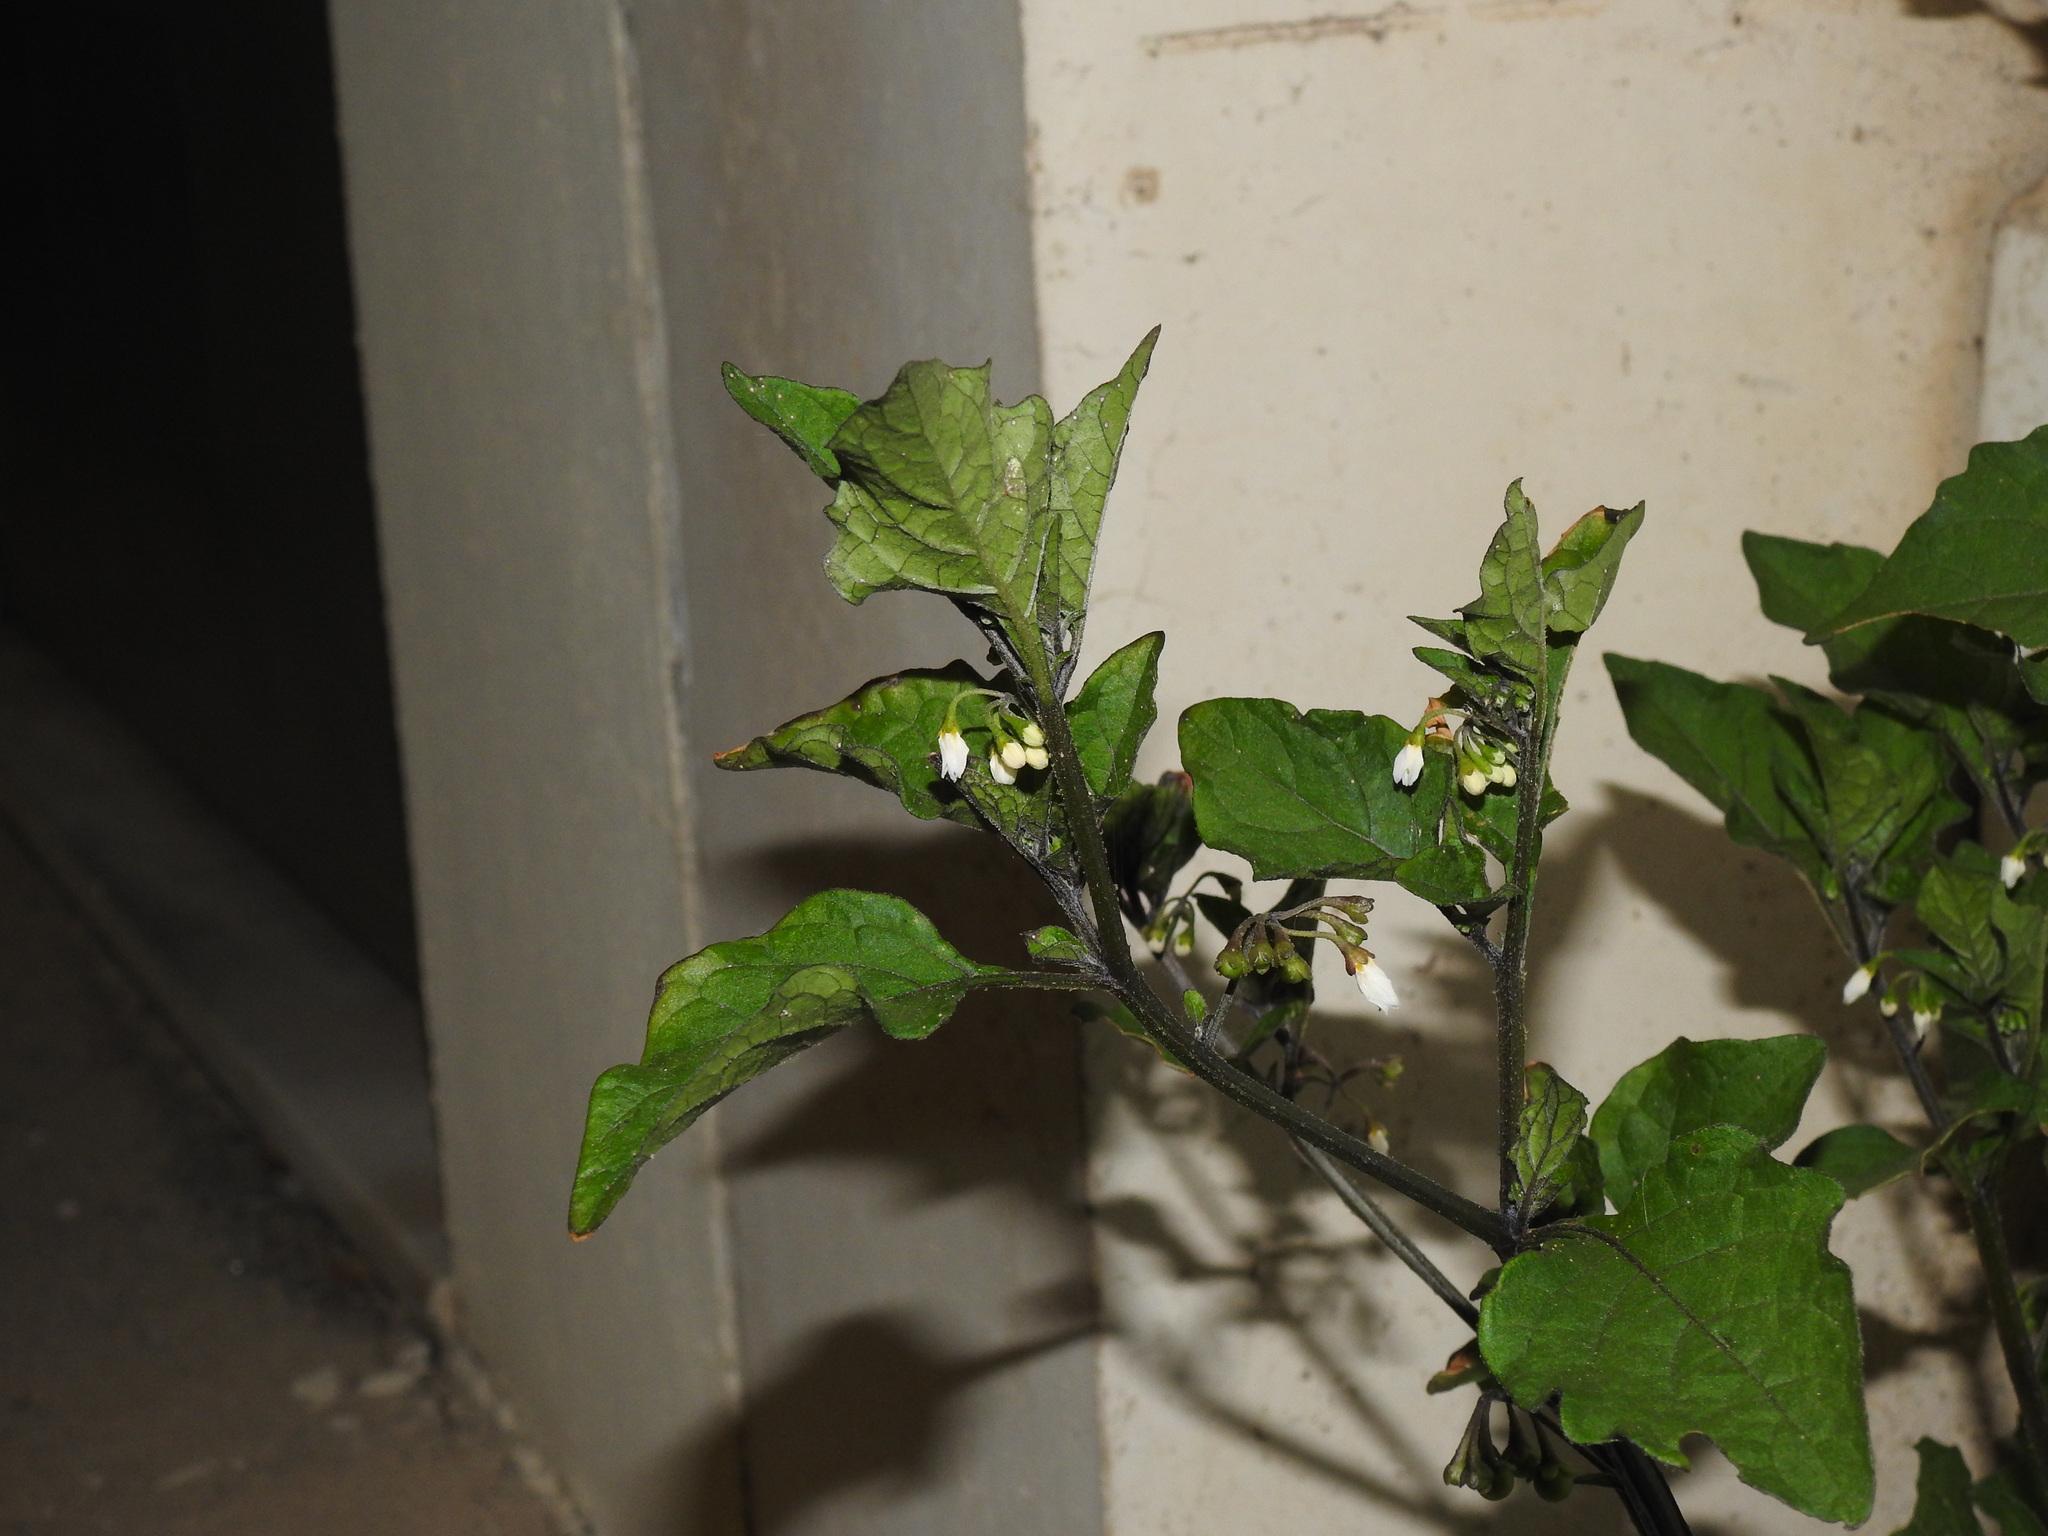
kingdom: Plantae
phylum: Tracheophyta
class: Magnoliopsida
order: Solanales
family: Solanaceae
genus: Solanum
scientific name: Solanum nigrum
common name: Black nightshade
